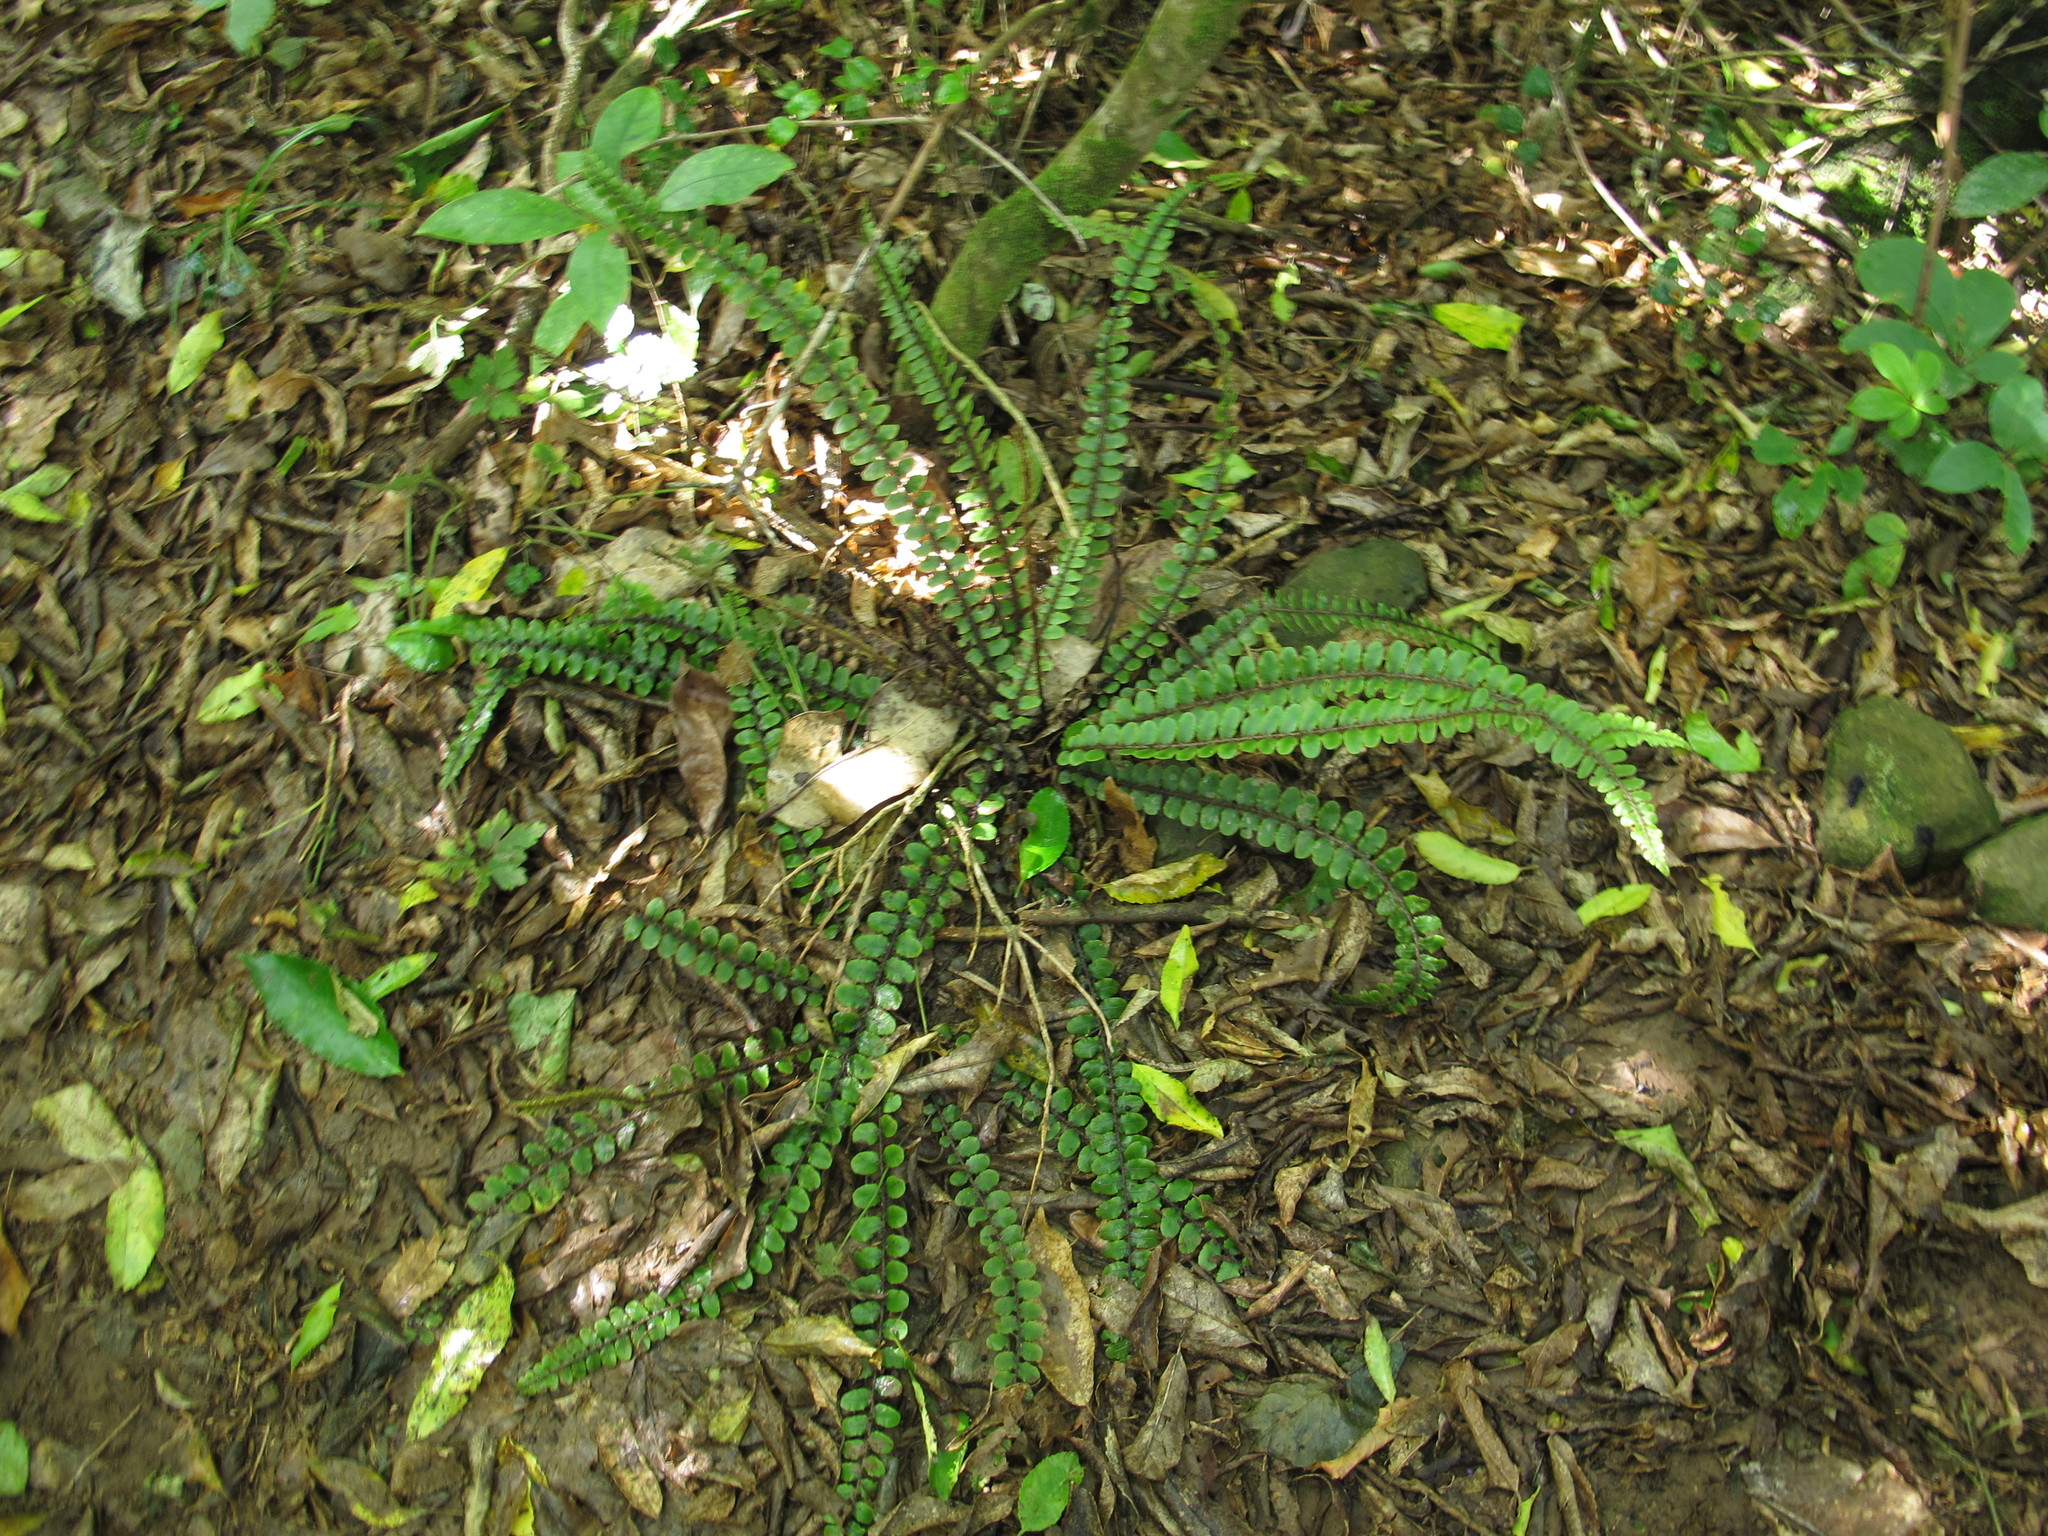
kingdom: Plantae
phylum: Tracheophyta
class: Polypodiopsida
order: Polypodiales
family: Blechnaceae
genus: Cranfillia
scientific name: Cranfillia fluviatilis
